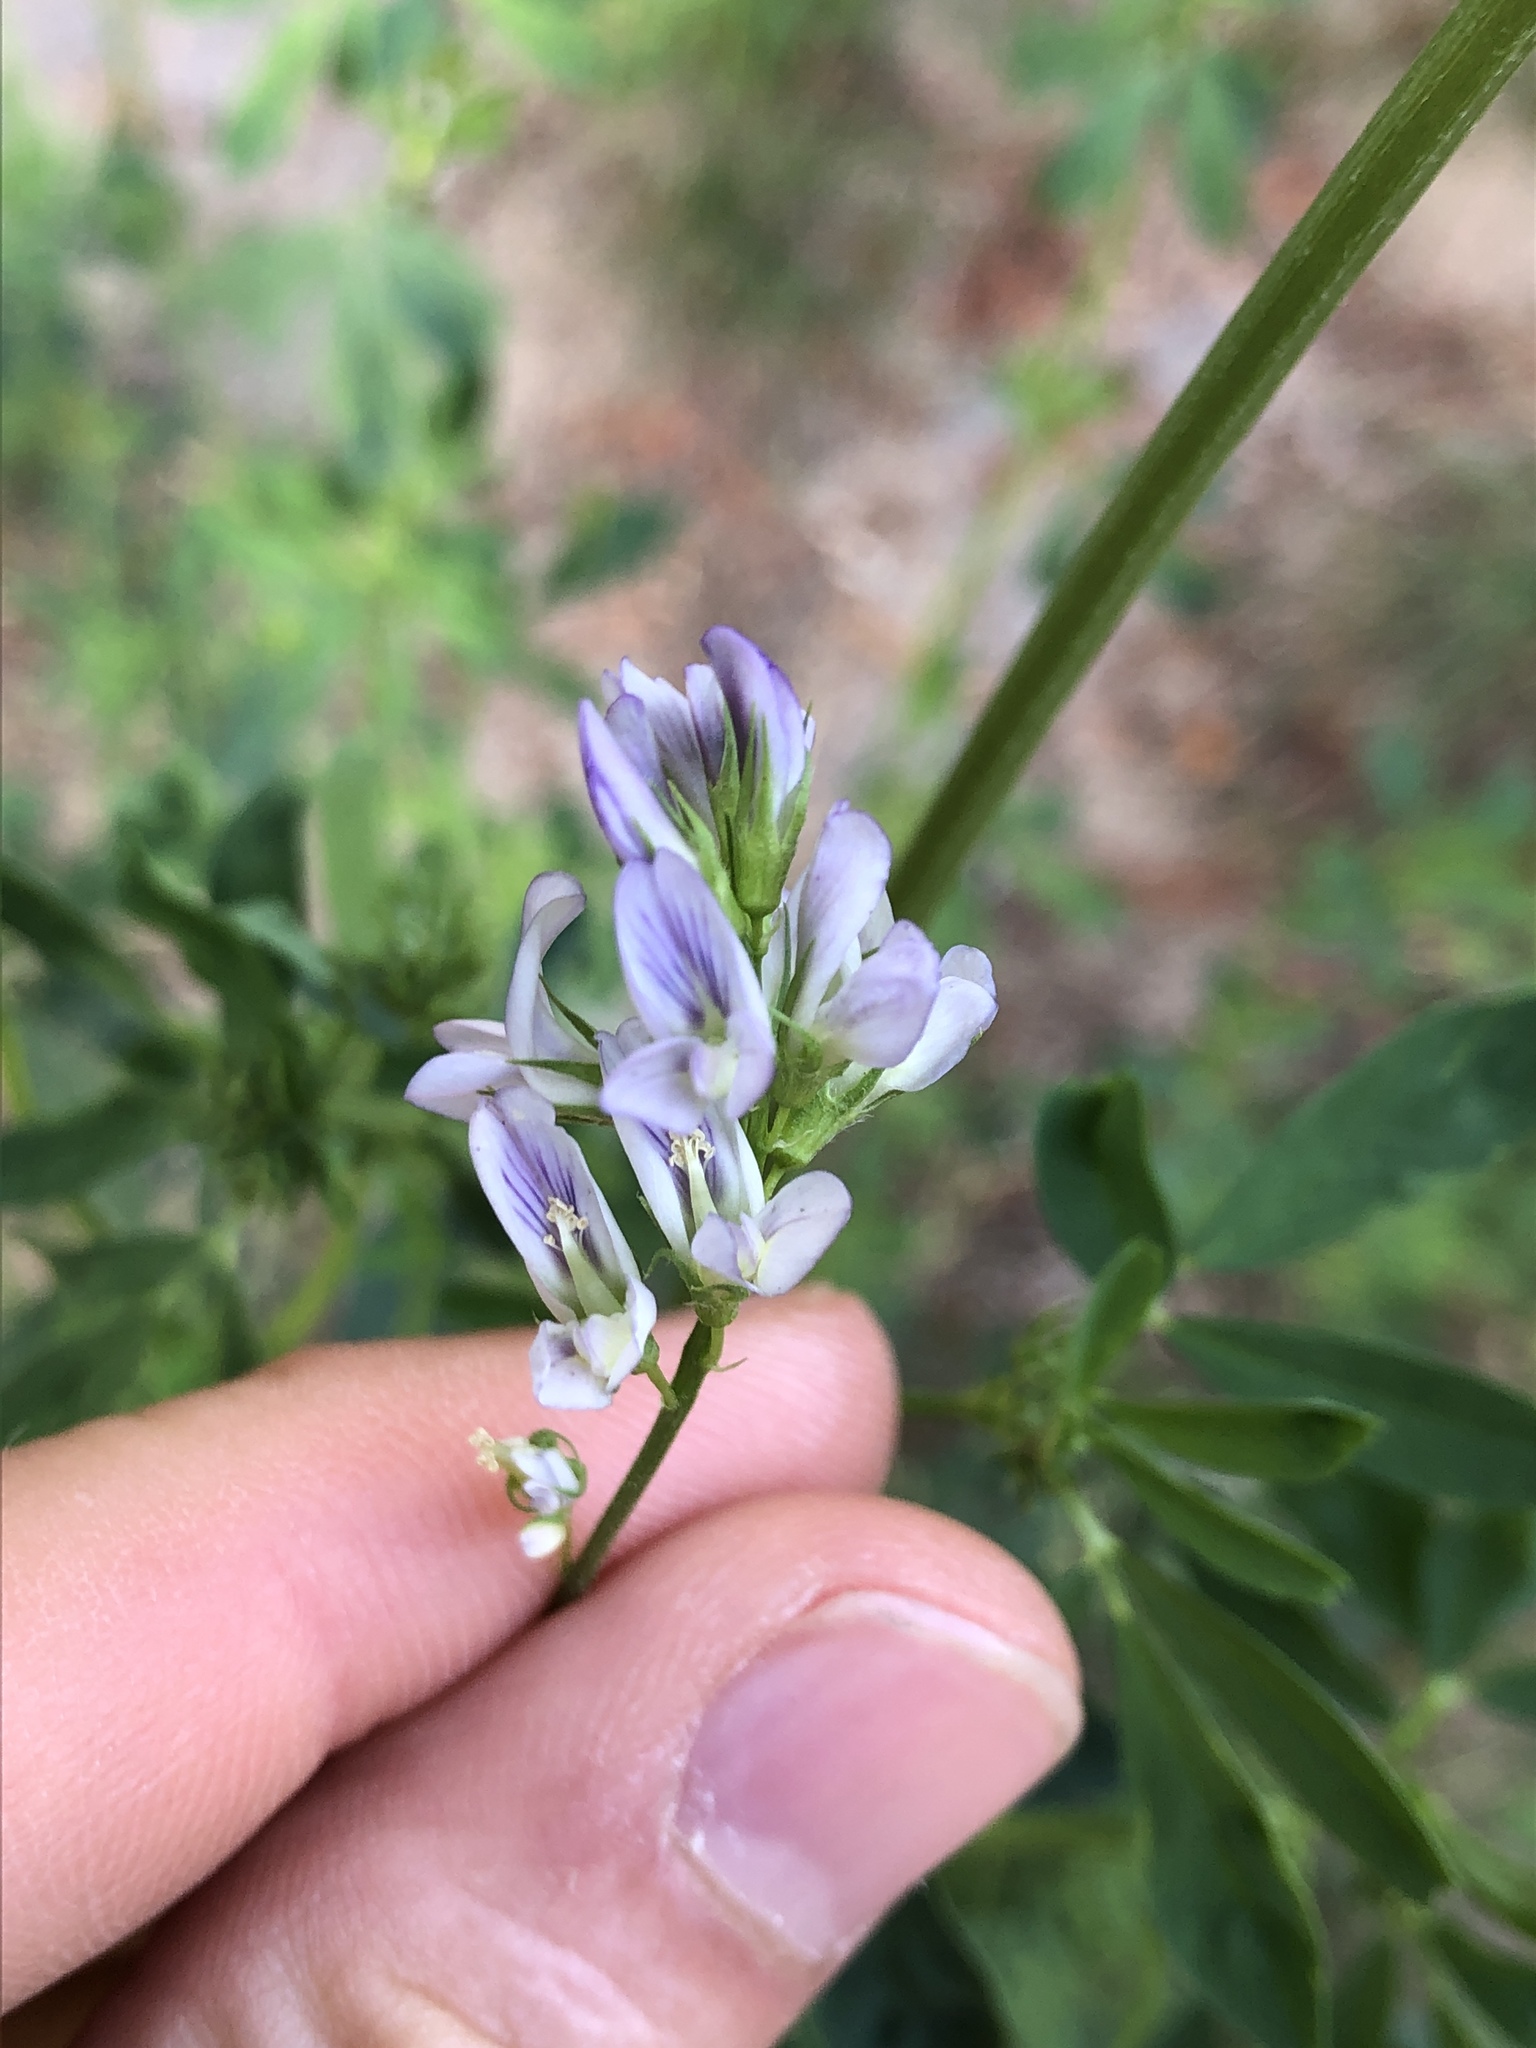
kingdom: Plantae
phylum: Tracheophyta
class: Magnoliopsida
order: Fabales
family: Fabaceae
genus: Medicago
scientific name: Medicago varia
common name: Sand lucerne
